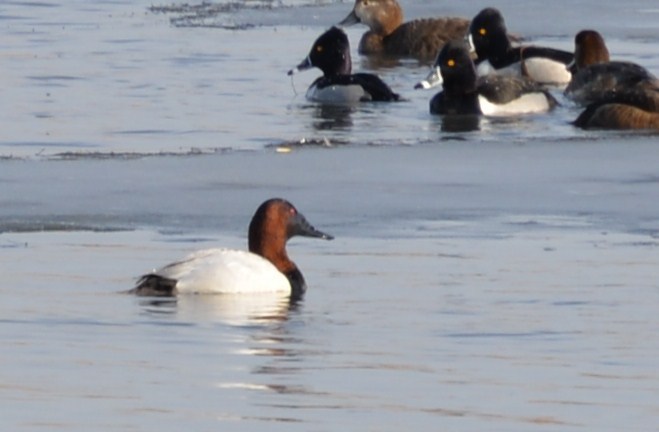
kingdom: Animalia
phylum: Chordata
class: Aves
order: Anseriformes
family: Anatidae
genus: Aythya
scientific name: Aythya valisineria
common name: Canvasback
